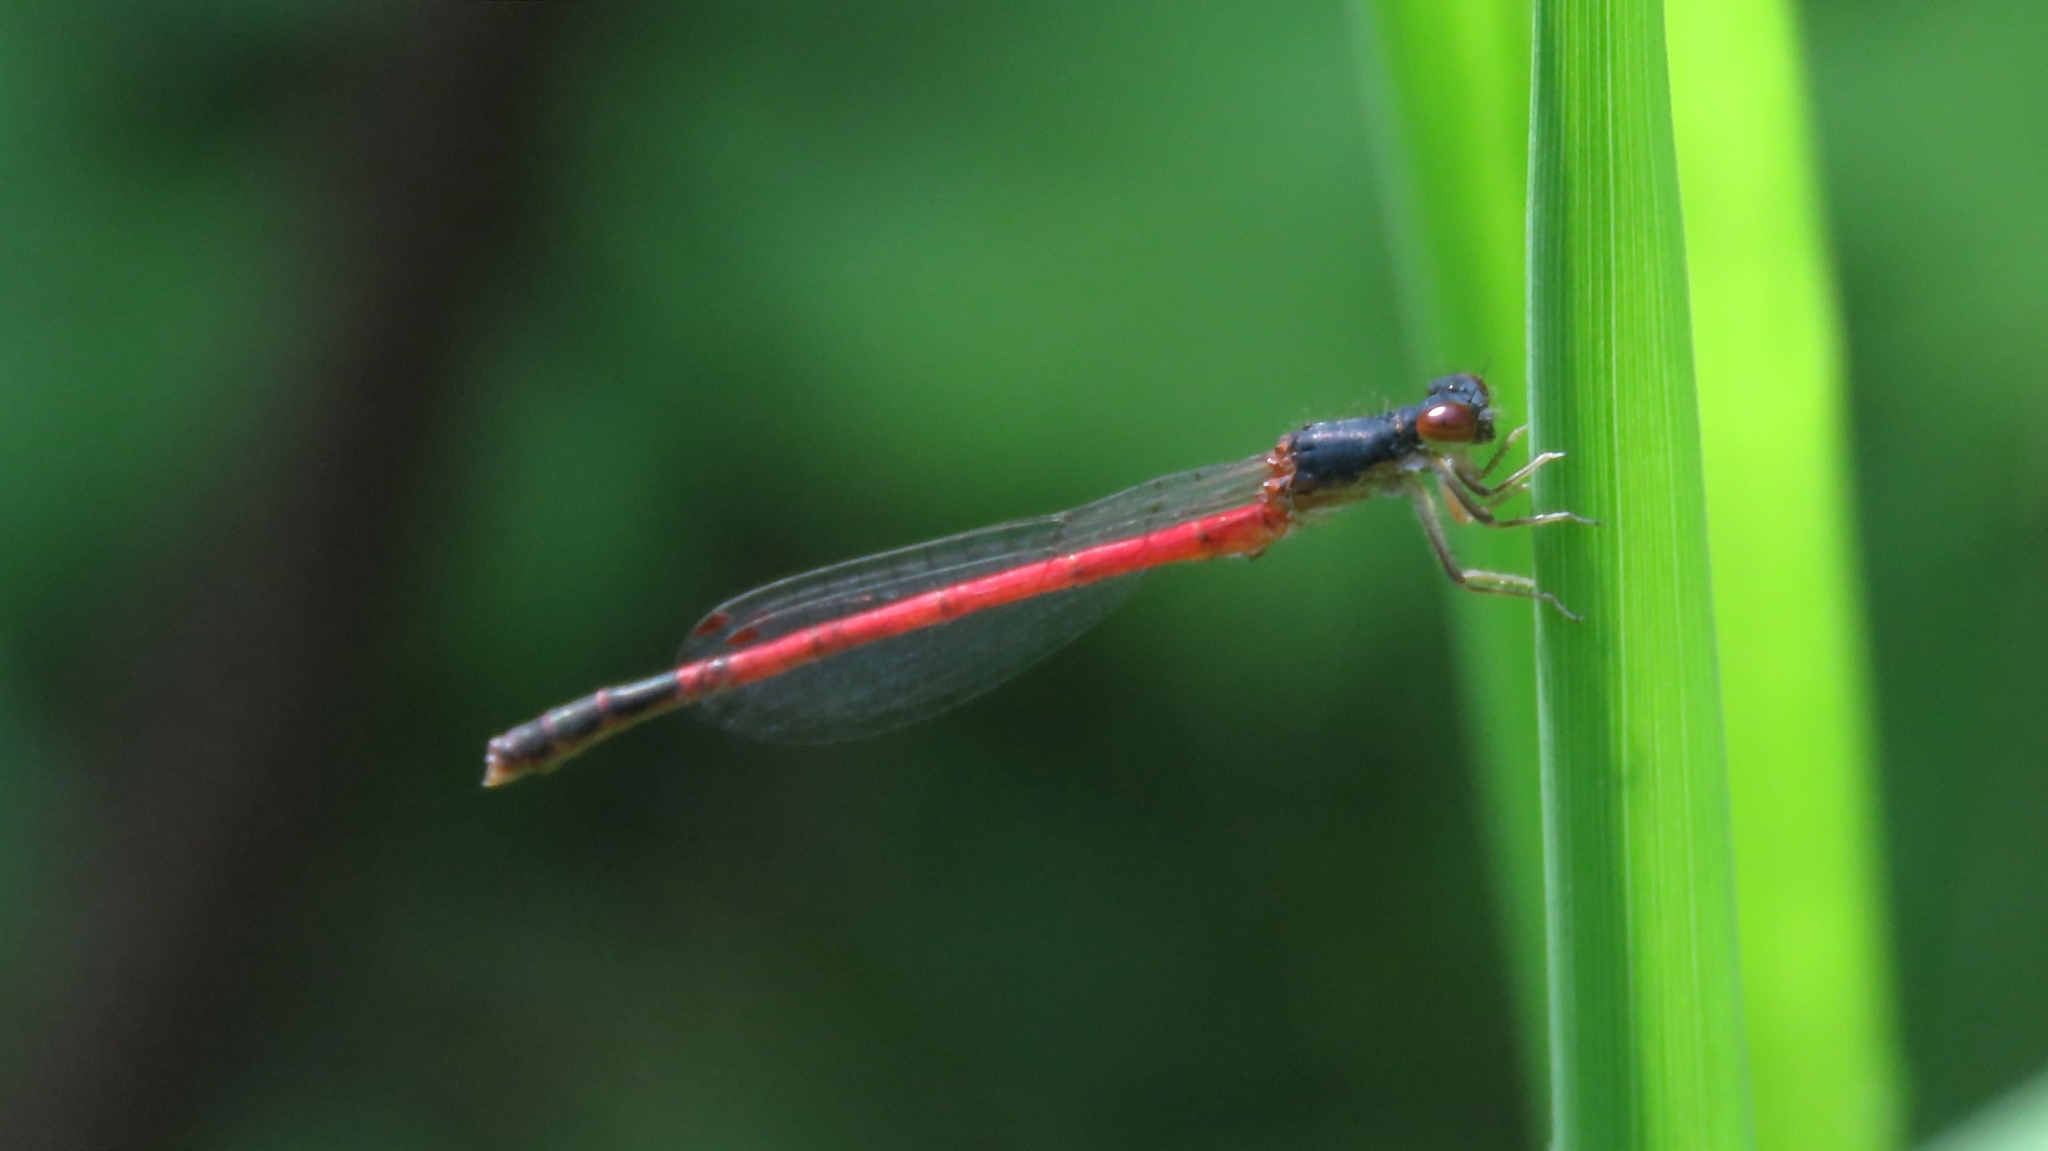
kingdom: Animalia
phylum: Arthropoda
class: Insecta
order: Odonata
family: Coenagrionidae
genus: Amphiagrion
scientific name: Amphiagrion saucium
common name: Eastern red damsel
